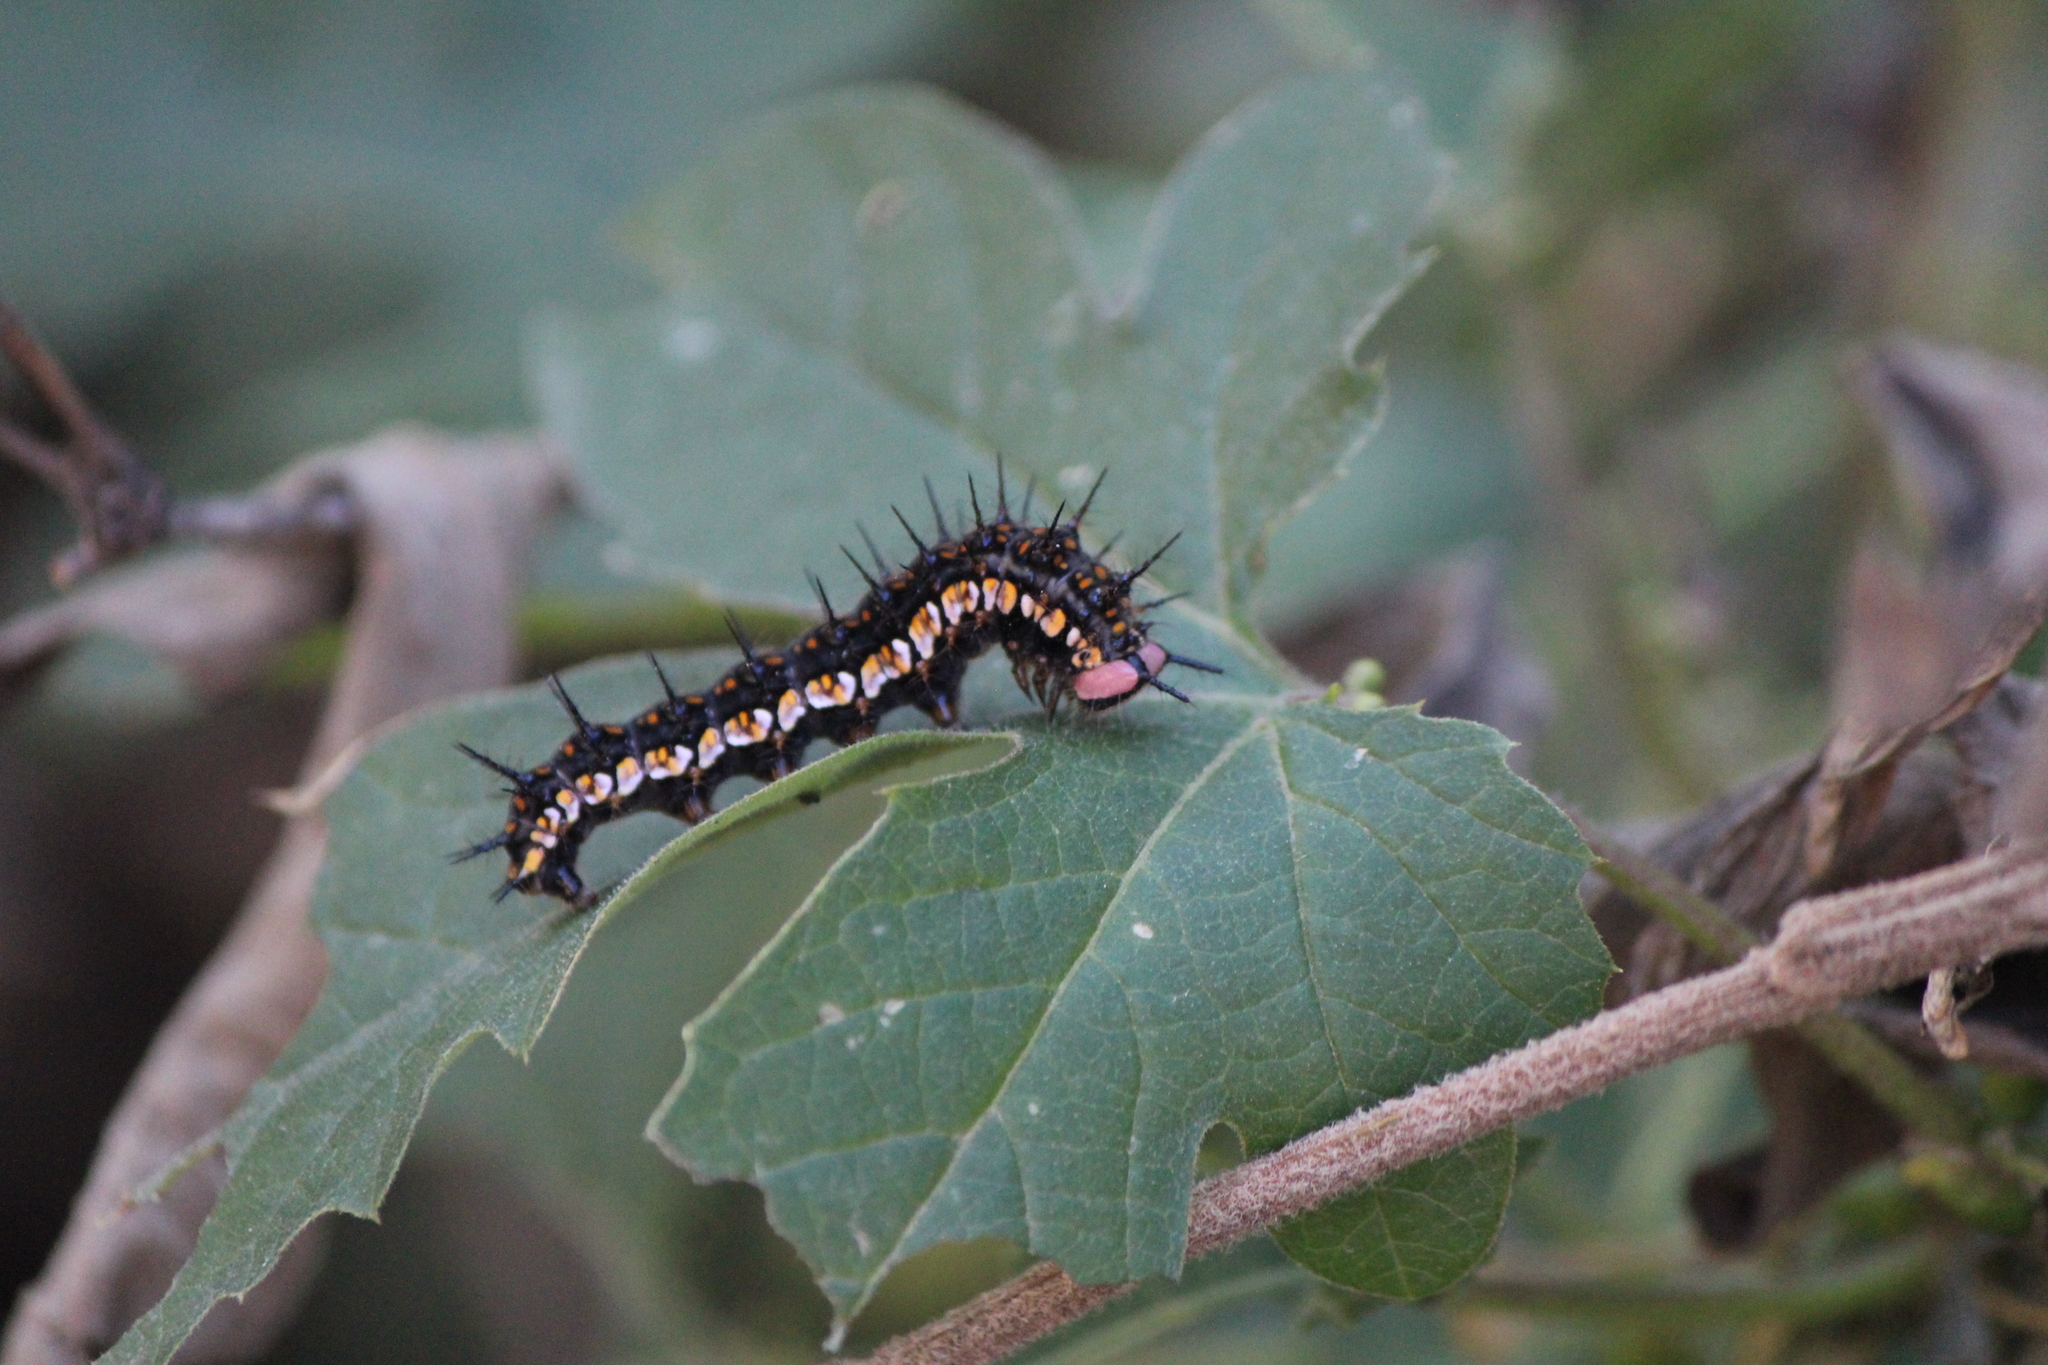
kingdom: Animalia
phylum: Arthropoda
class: Insecta
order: Lepidoptera
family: Nymphalidae
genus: Dione
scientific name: Dione moneta
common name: Mexican silverspot
